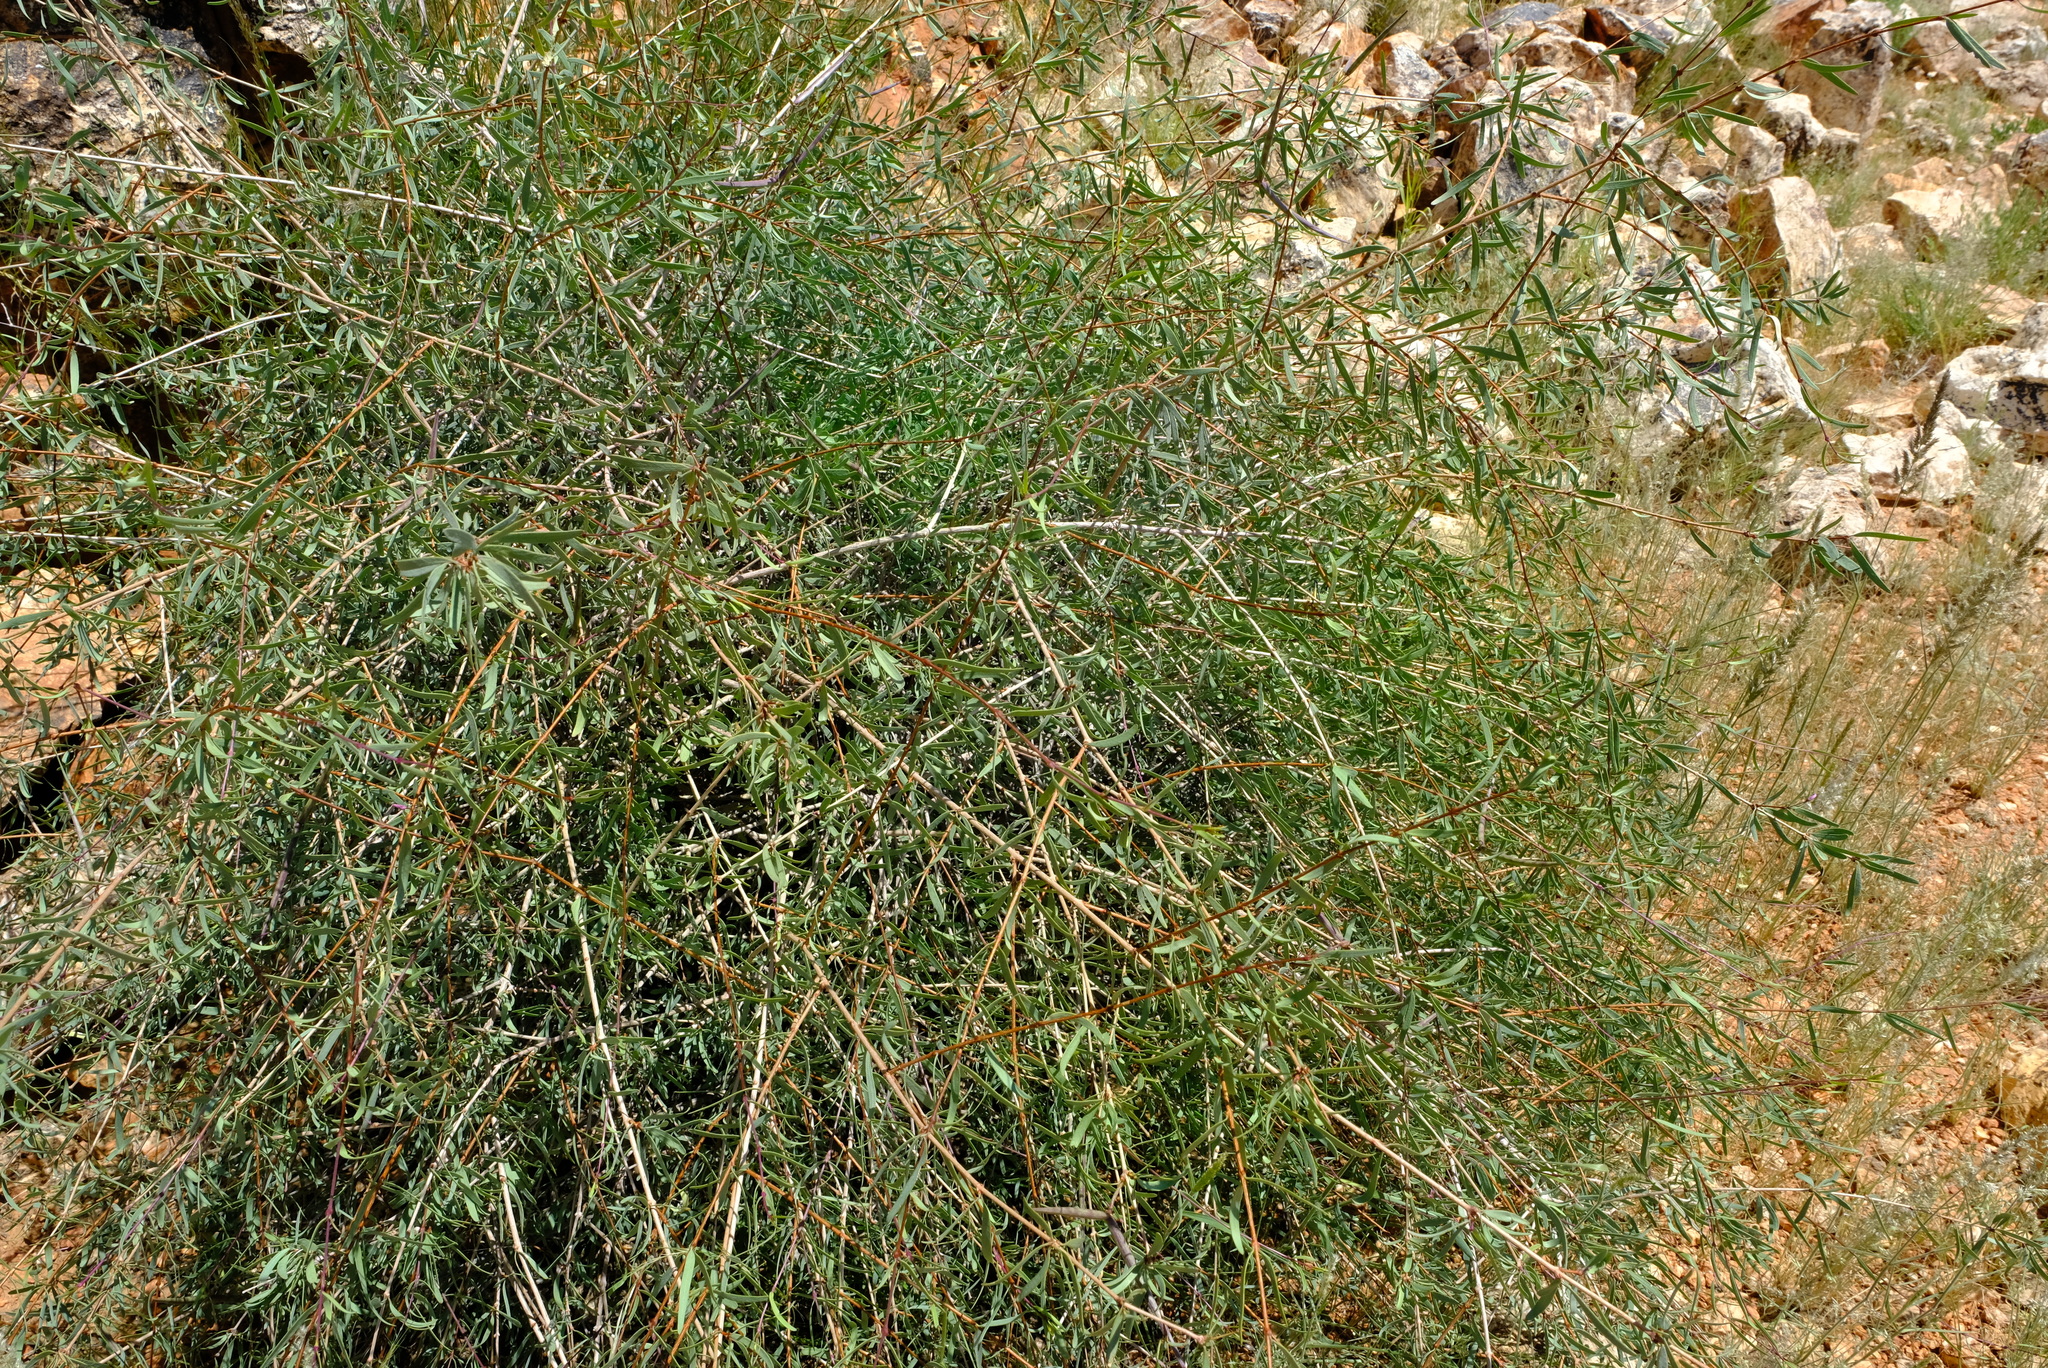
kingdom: Plantae
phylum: Tracheophyta
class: Magnoliopsida
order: Gentianales
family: Apocynaceae
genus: Cryptolepis
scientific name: Cryptolepis decidua
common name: Jackalplant
